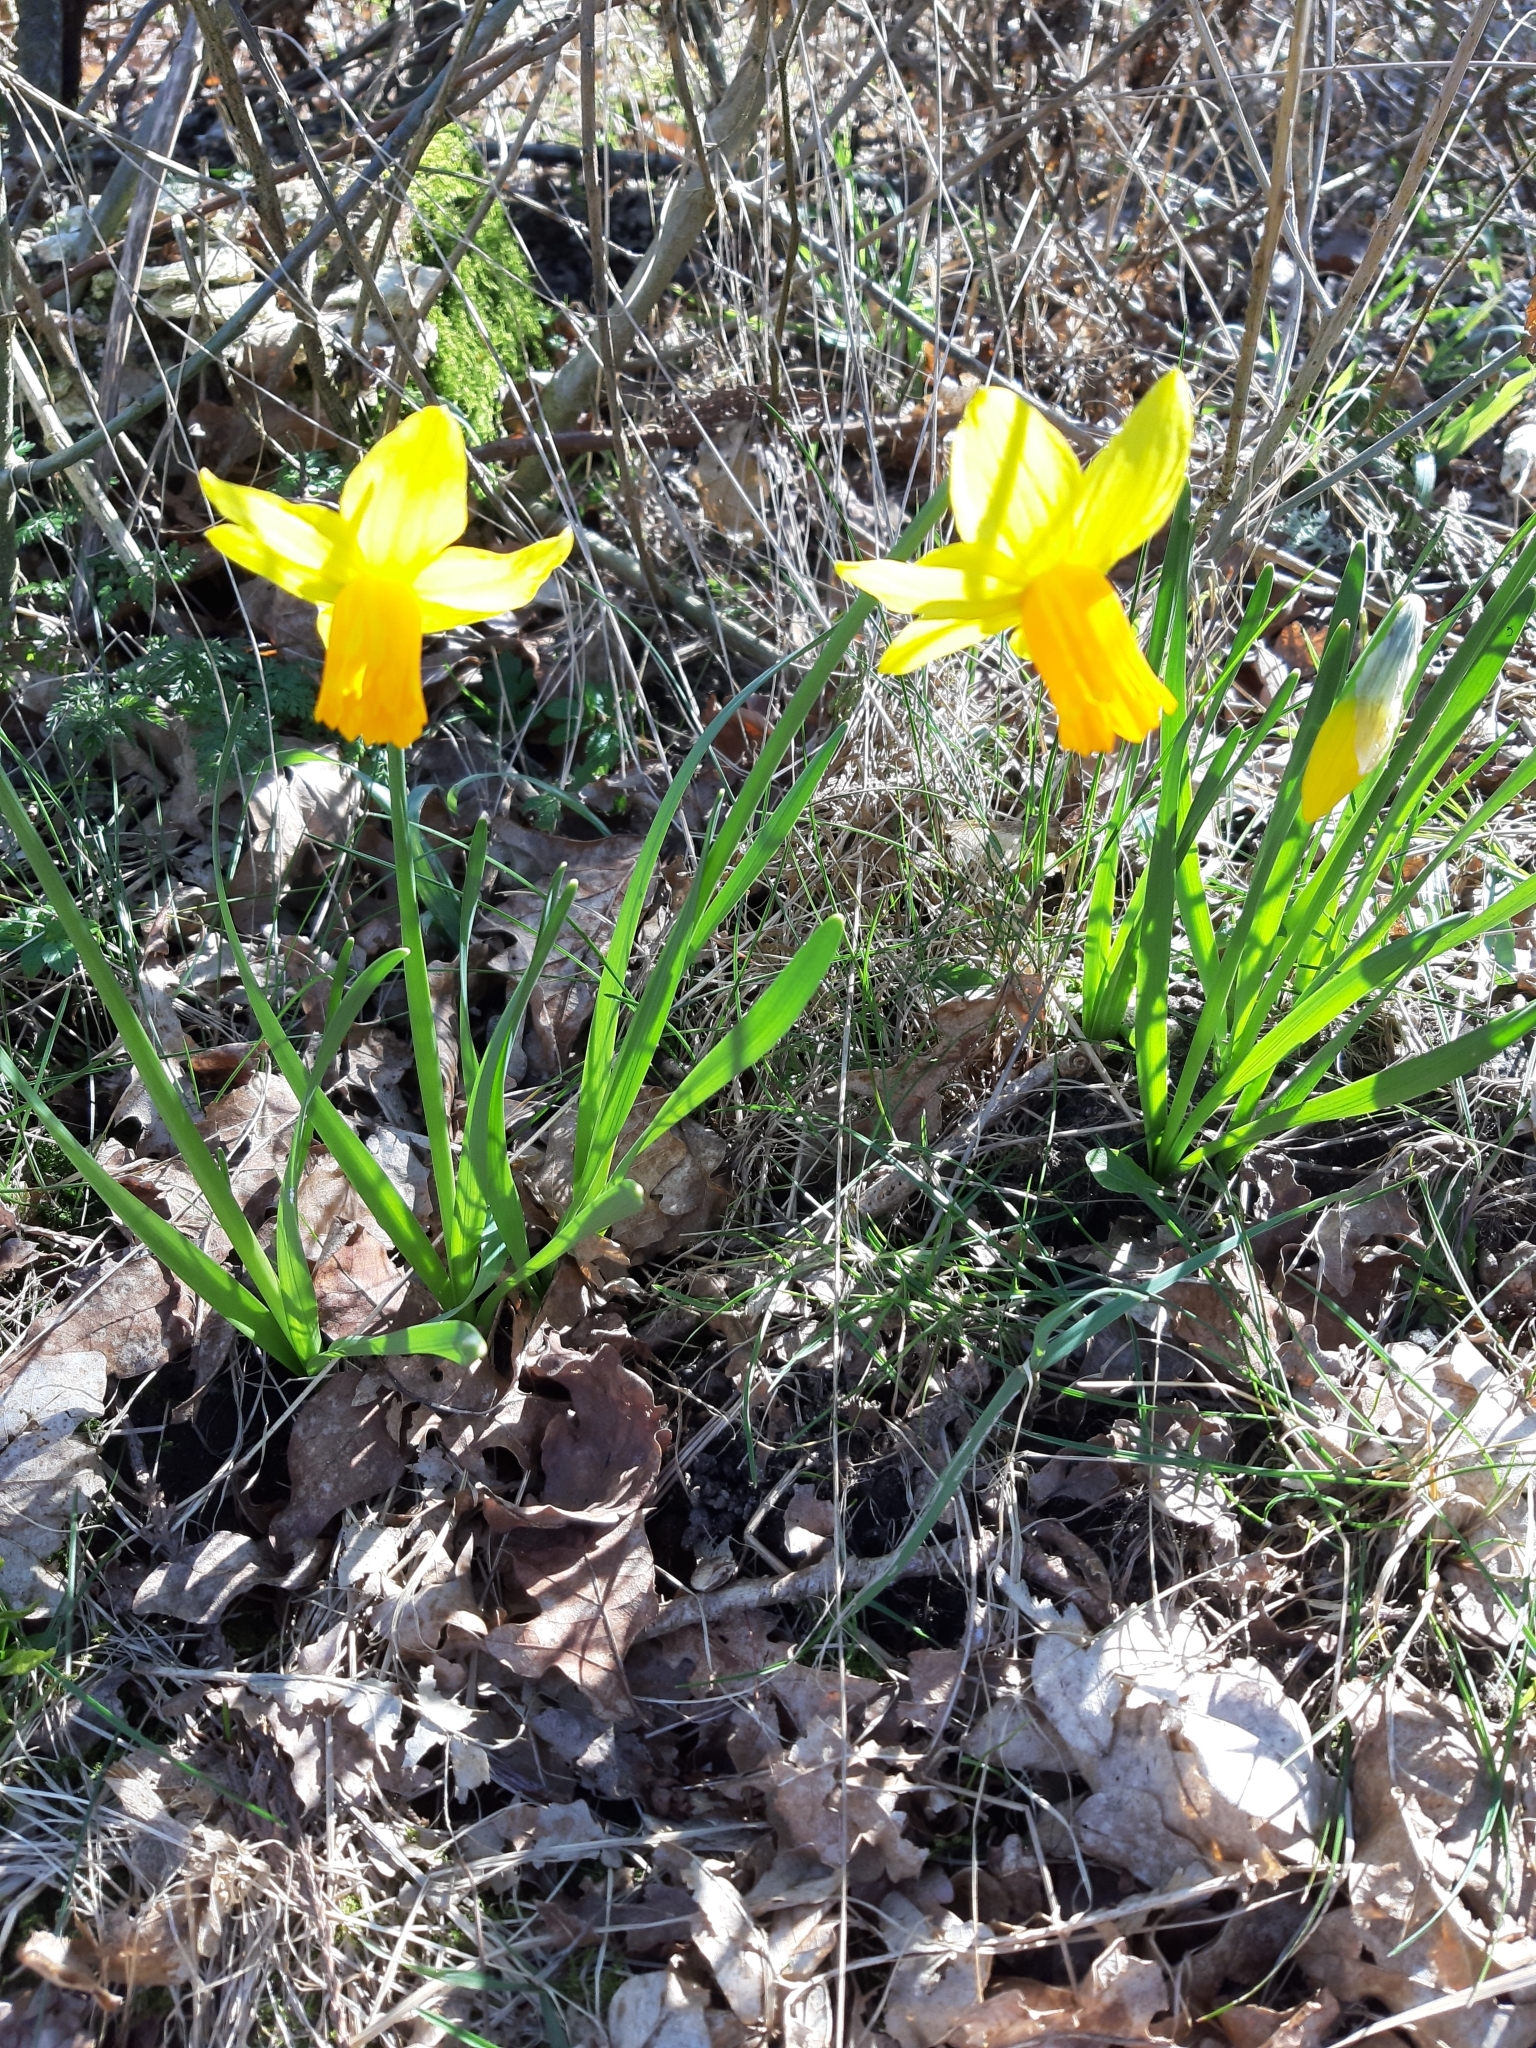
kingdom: Plantae
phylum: Tracheophyta
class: Liliopsida
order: Asparagales
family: Amaryllidaceae
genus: Narcissus
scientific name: Narcissus cyclazetta
